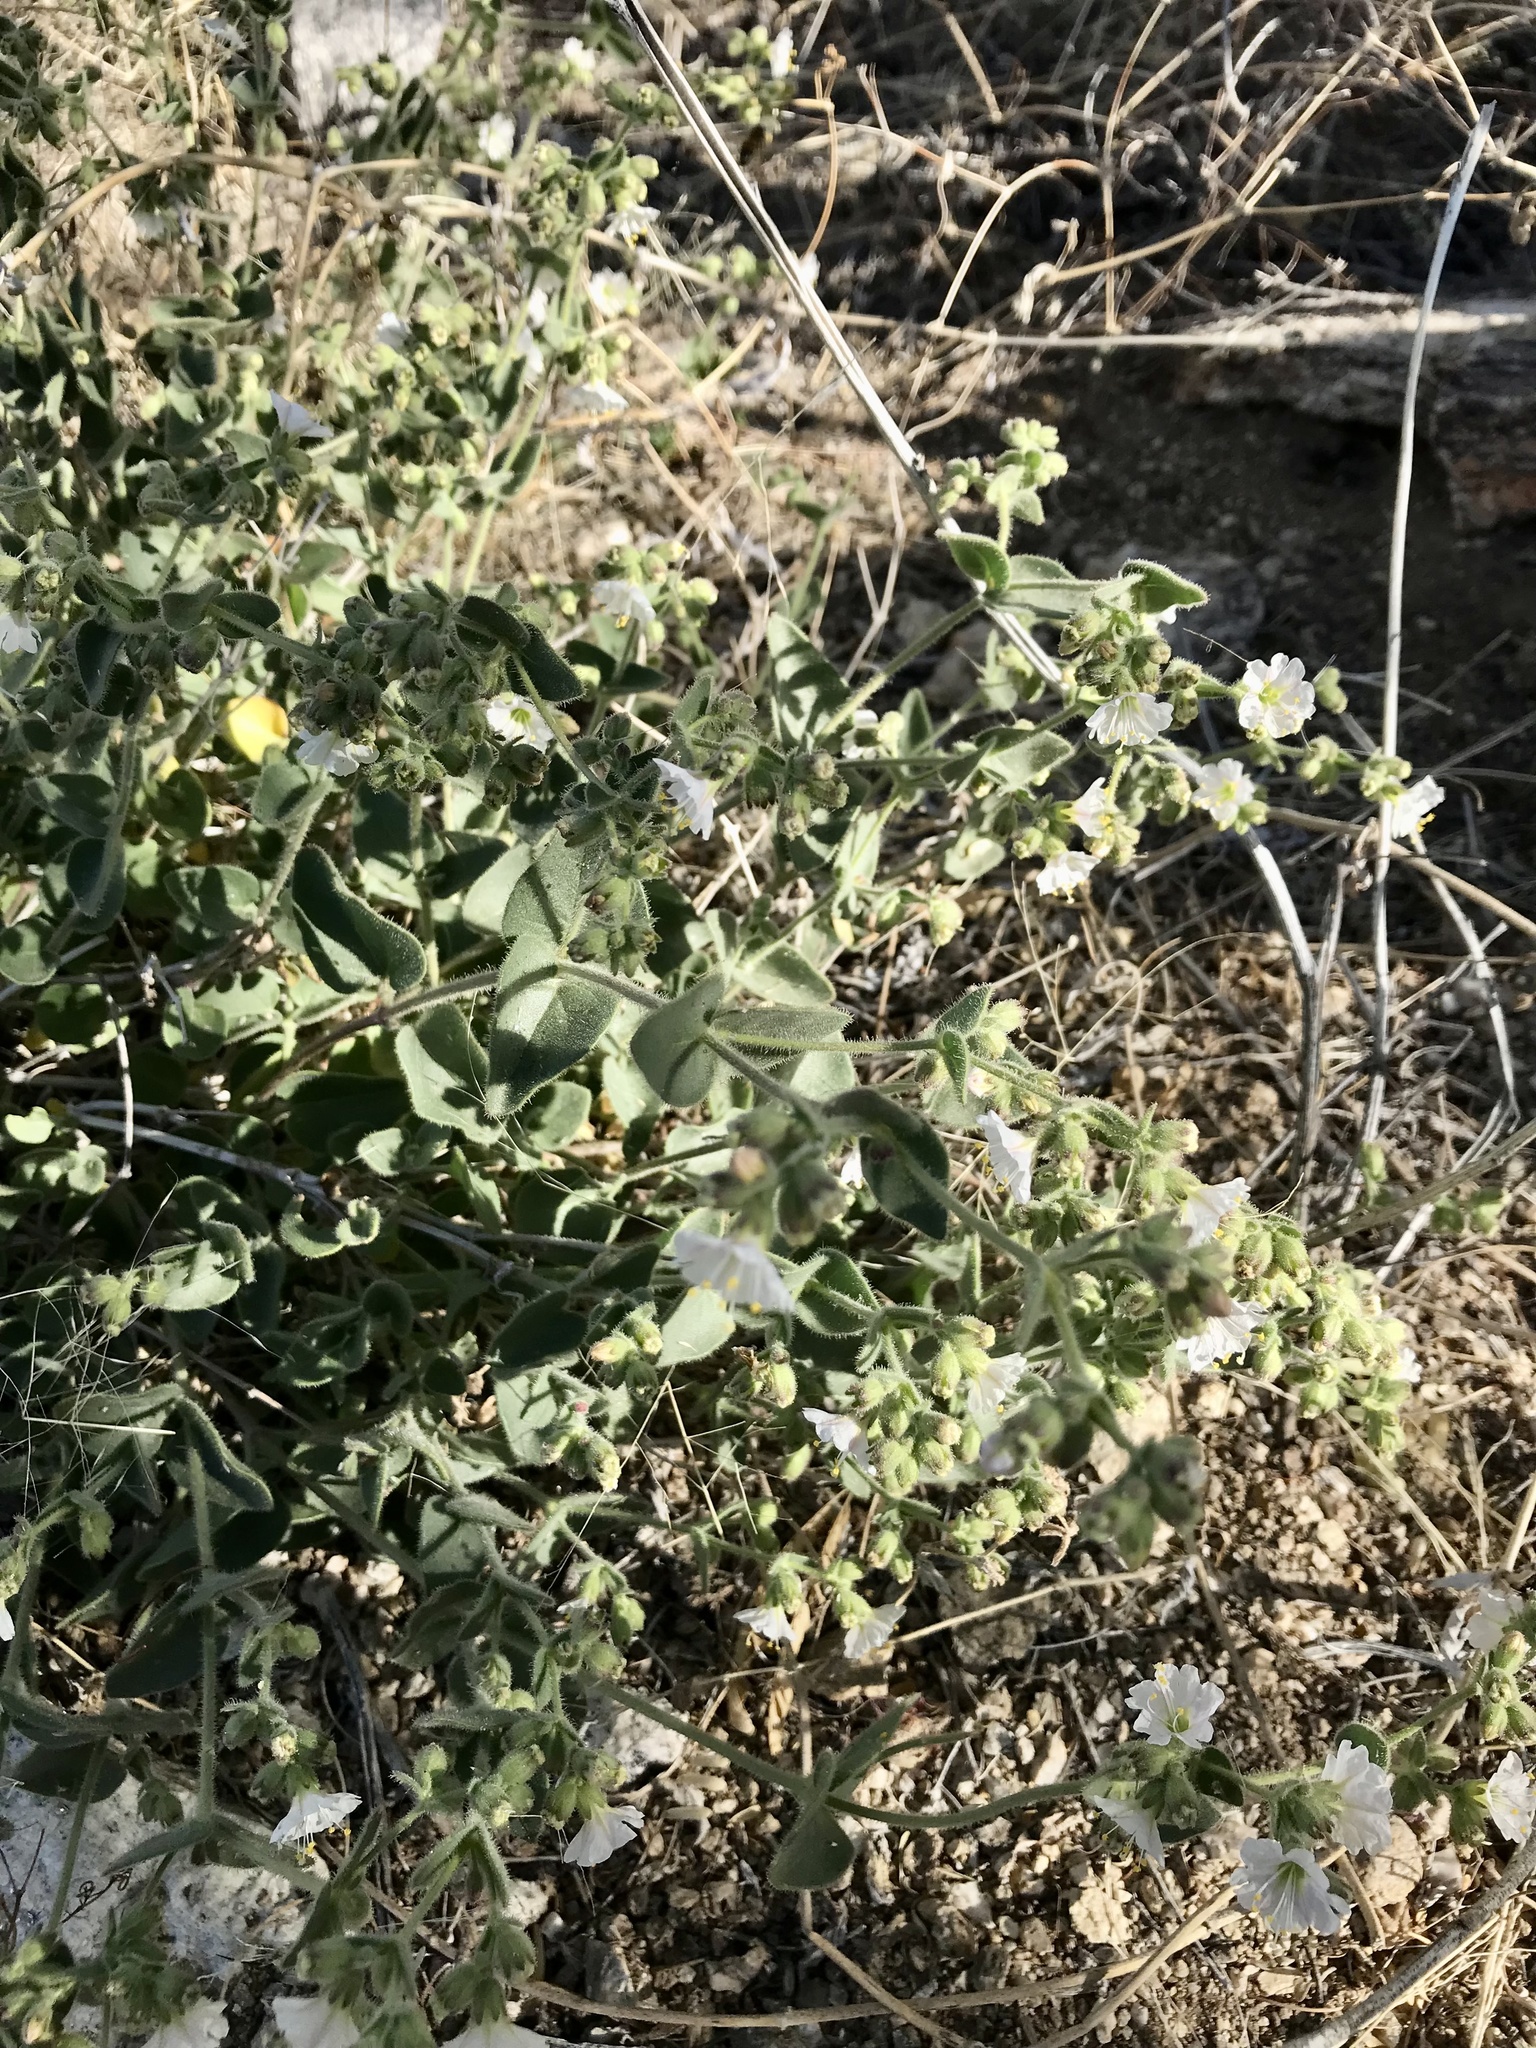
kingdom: Plantae
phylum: Tracheophyta
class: Magnoliopsida
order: Caryophyllales
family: Nyctaginaceae
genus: Mirabilis
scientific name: Mirabilis laevis
